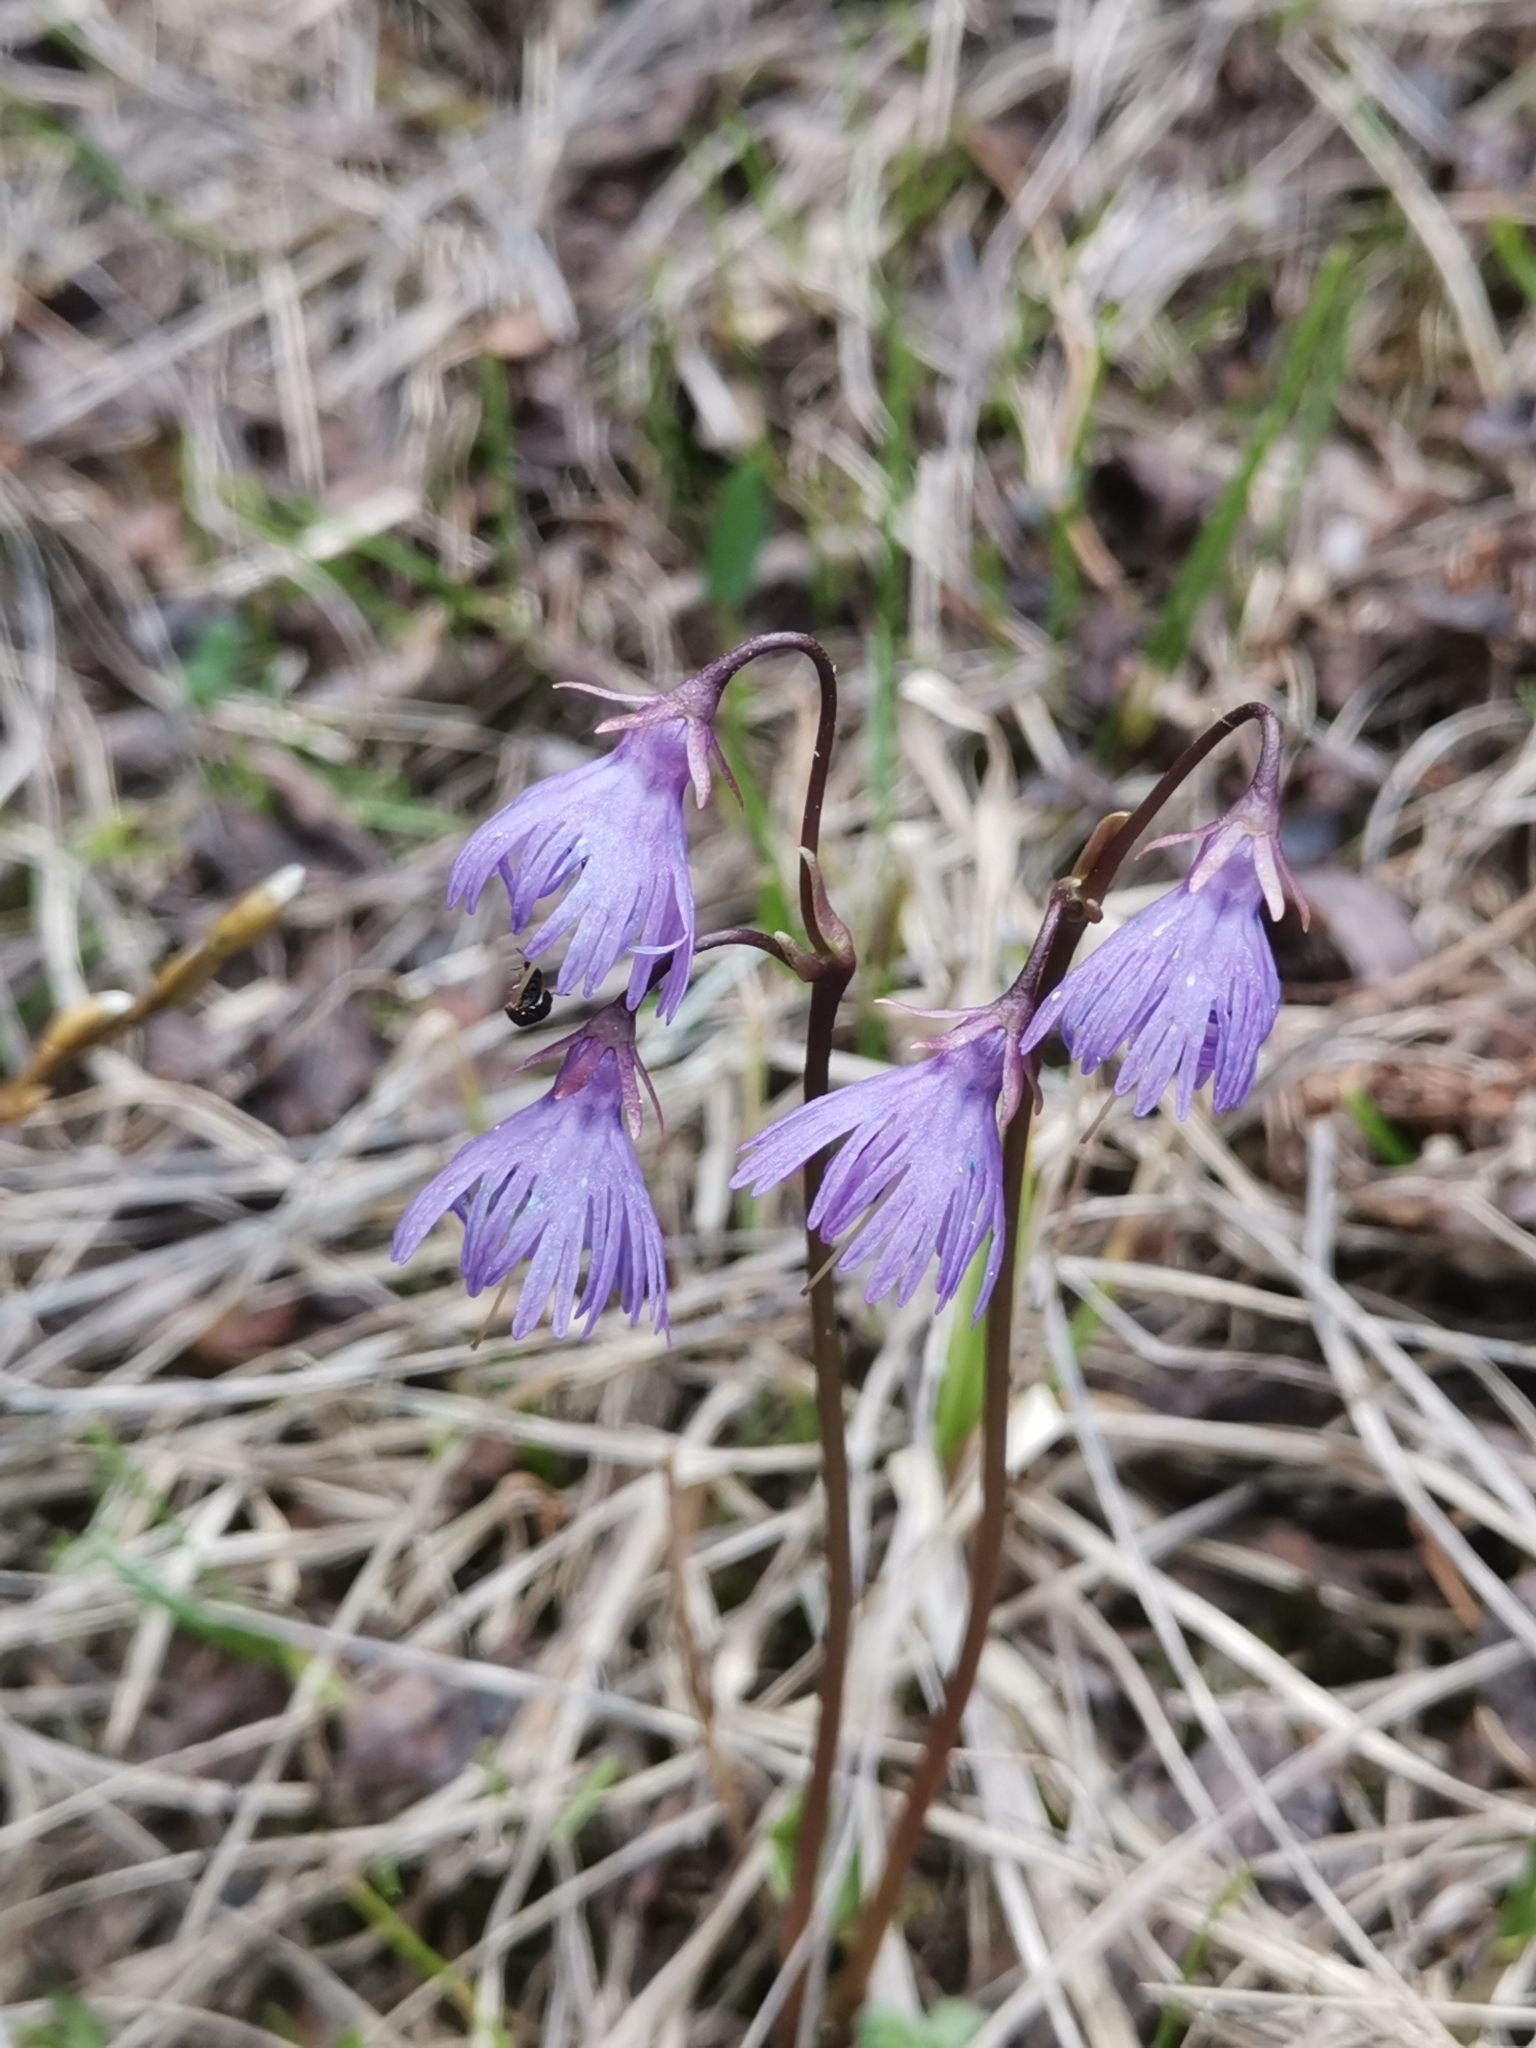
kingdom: Plantae
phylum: Tracheophyta
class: Magnoliopsida
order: Ericales
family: Primulaceae
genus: Soldanella
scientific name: Soldanella alpina
